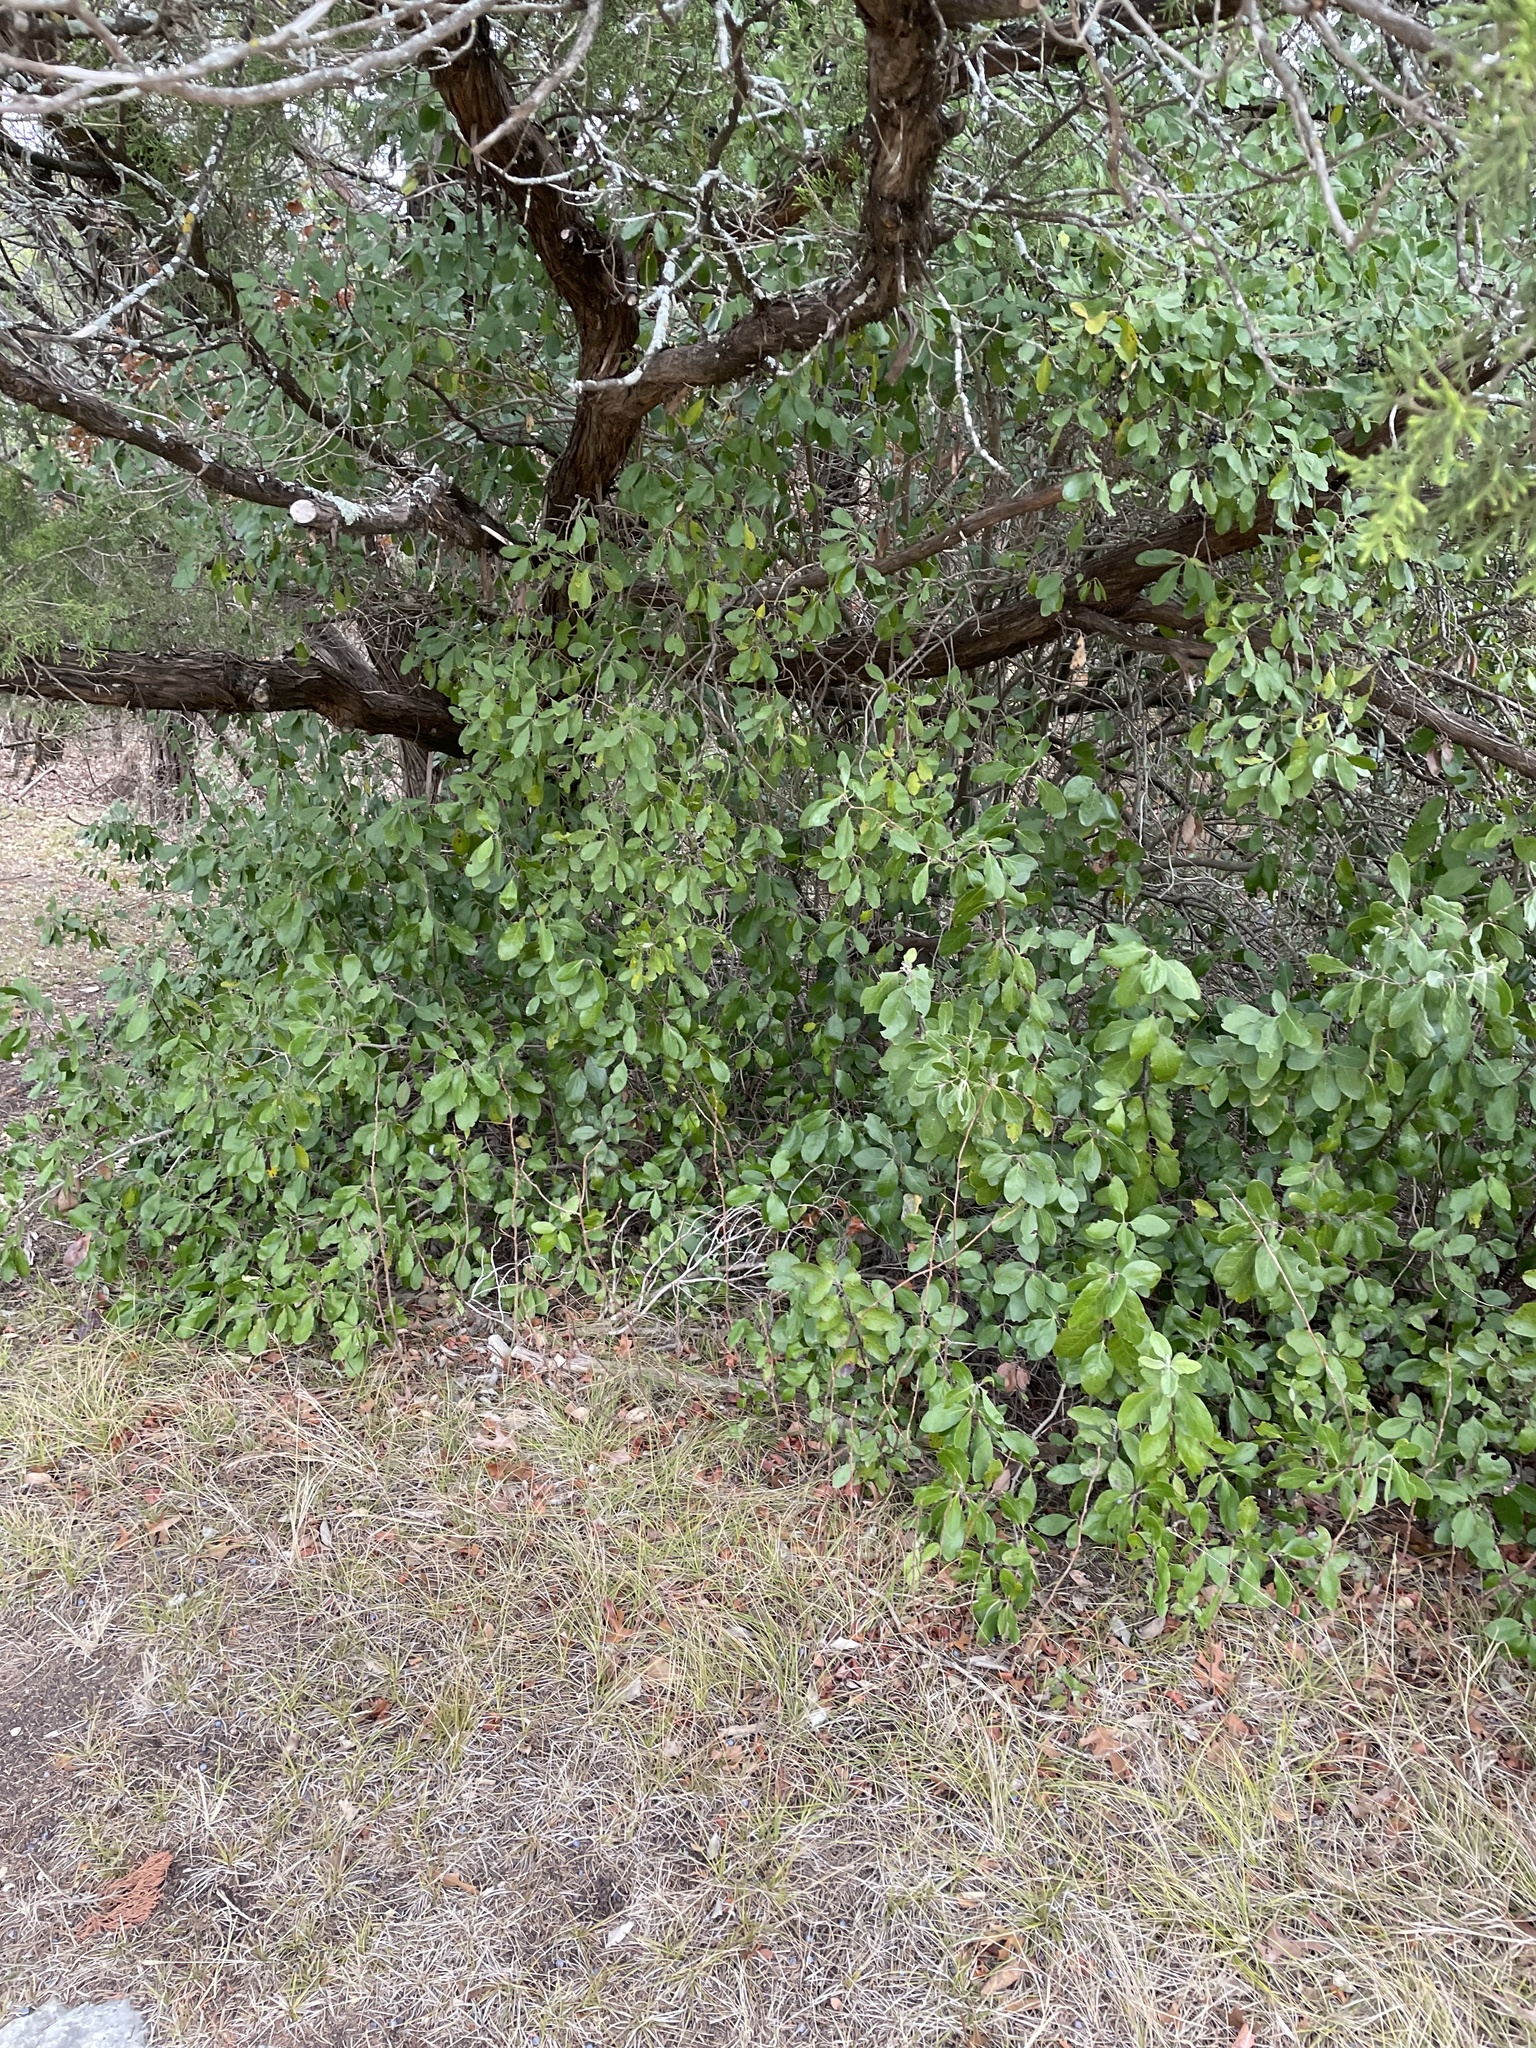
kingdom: Plantae
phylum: Tracheophyta
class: Magnoliopsida
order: Garryales
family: Garryaceae
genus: Garrya
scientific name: Garrya lindheimeri
